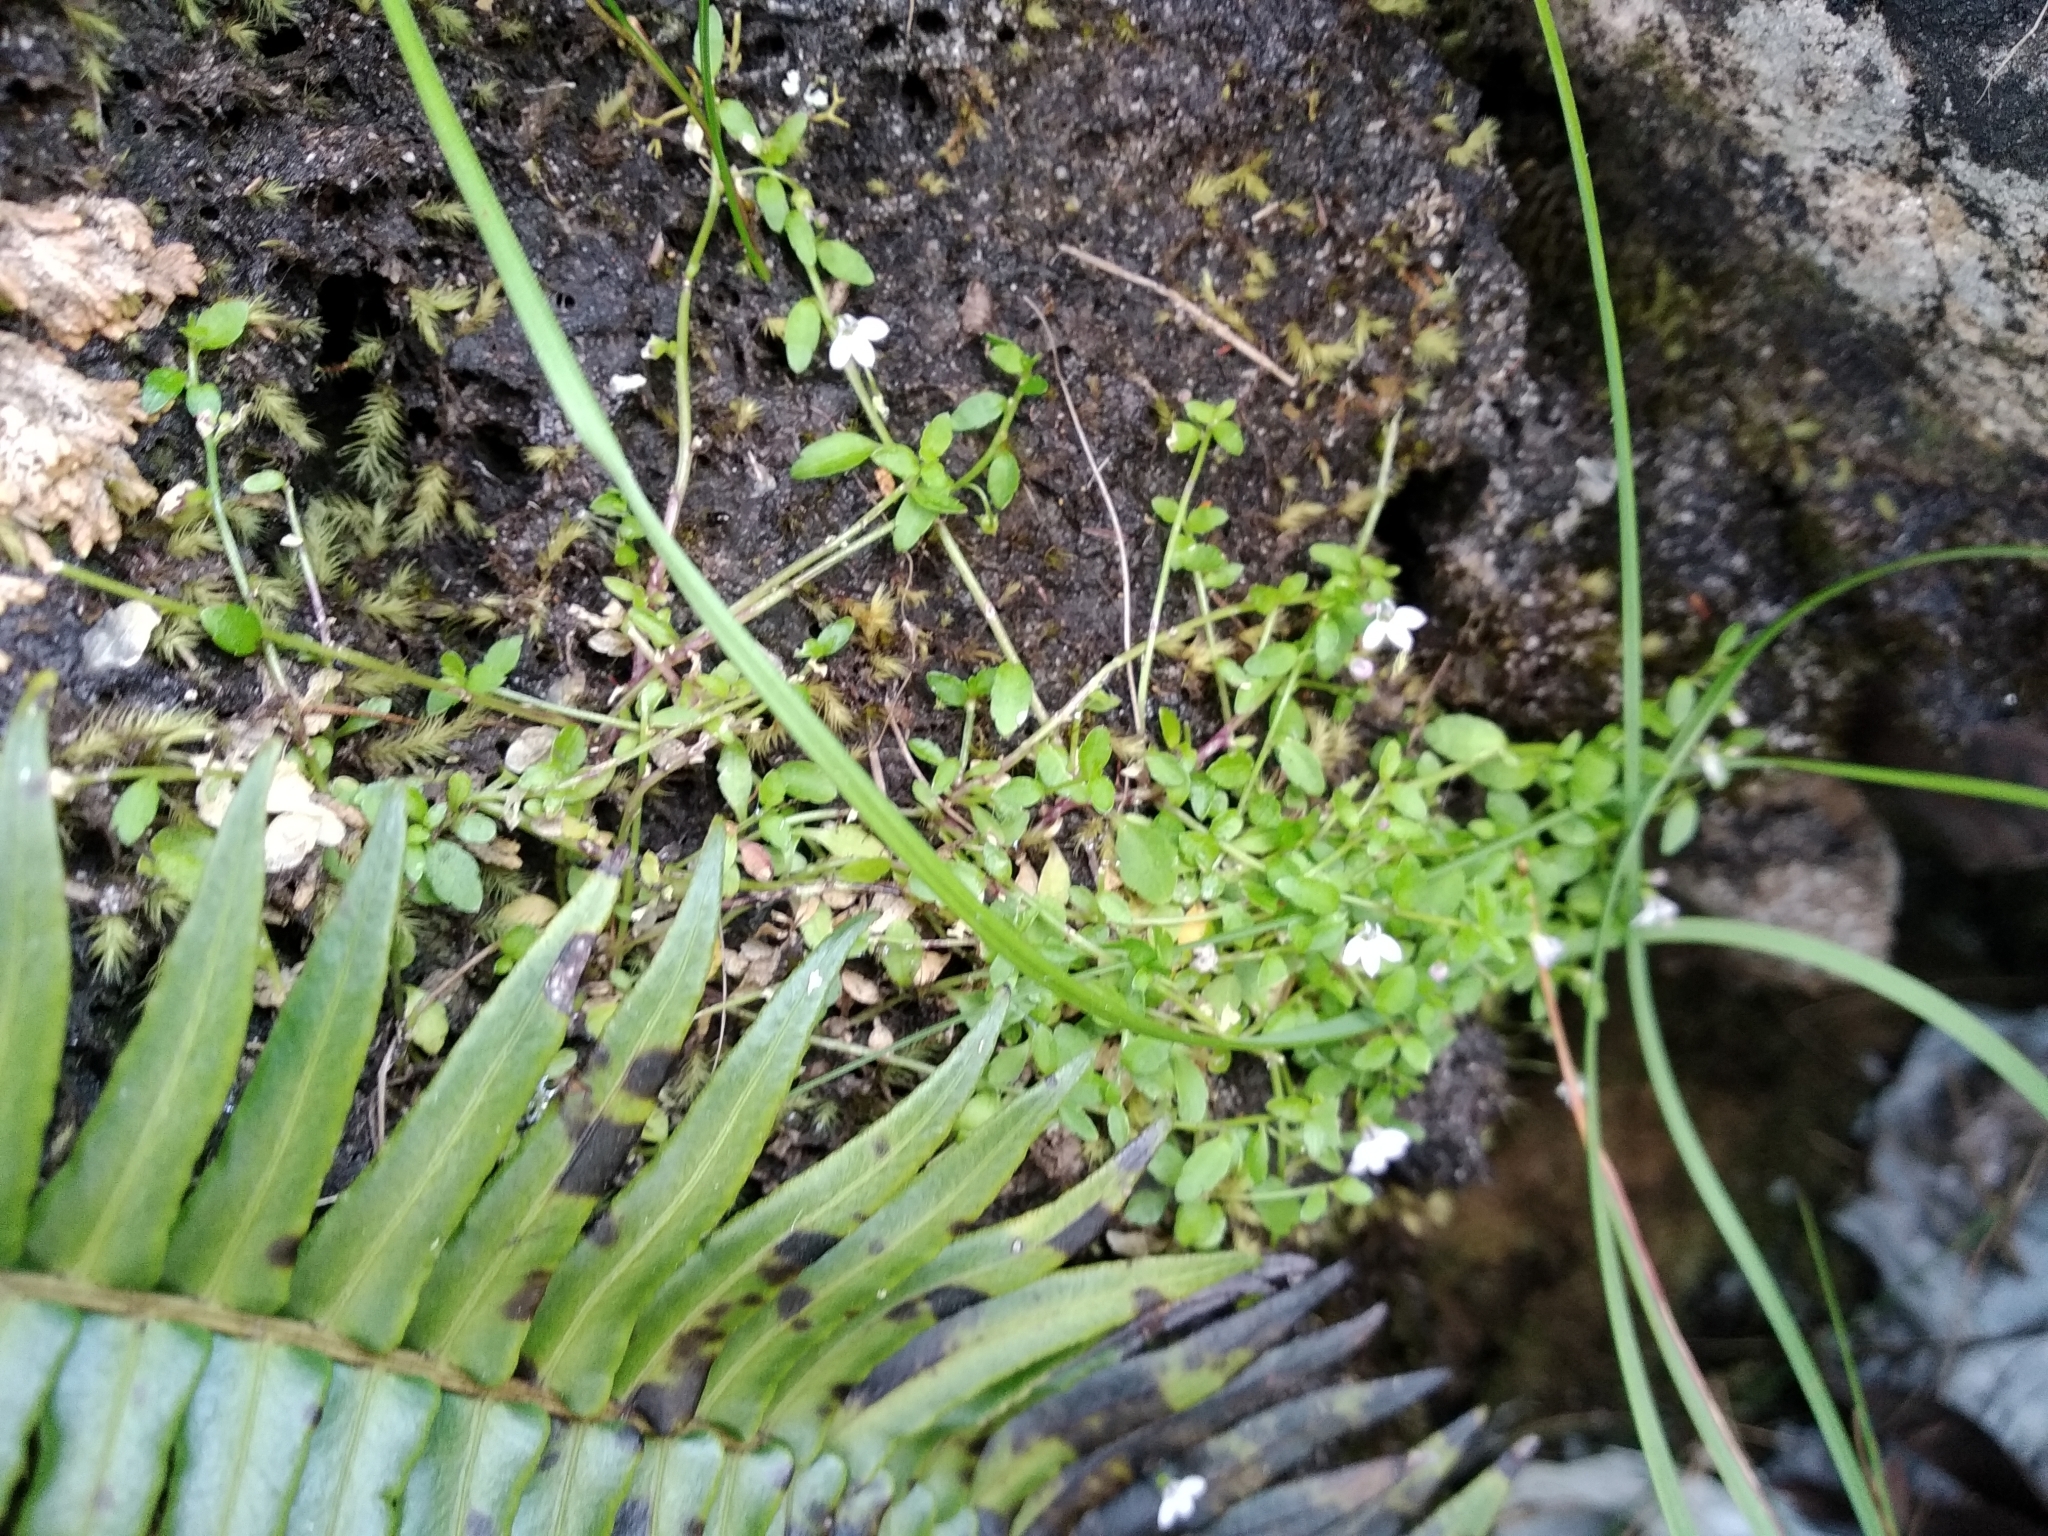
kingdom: Plantae
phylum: Tracheophyta
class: Magnoliopsida
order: Asterales
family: Campanulaceae
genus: Unigenes
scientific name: Unigenes humifusa
